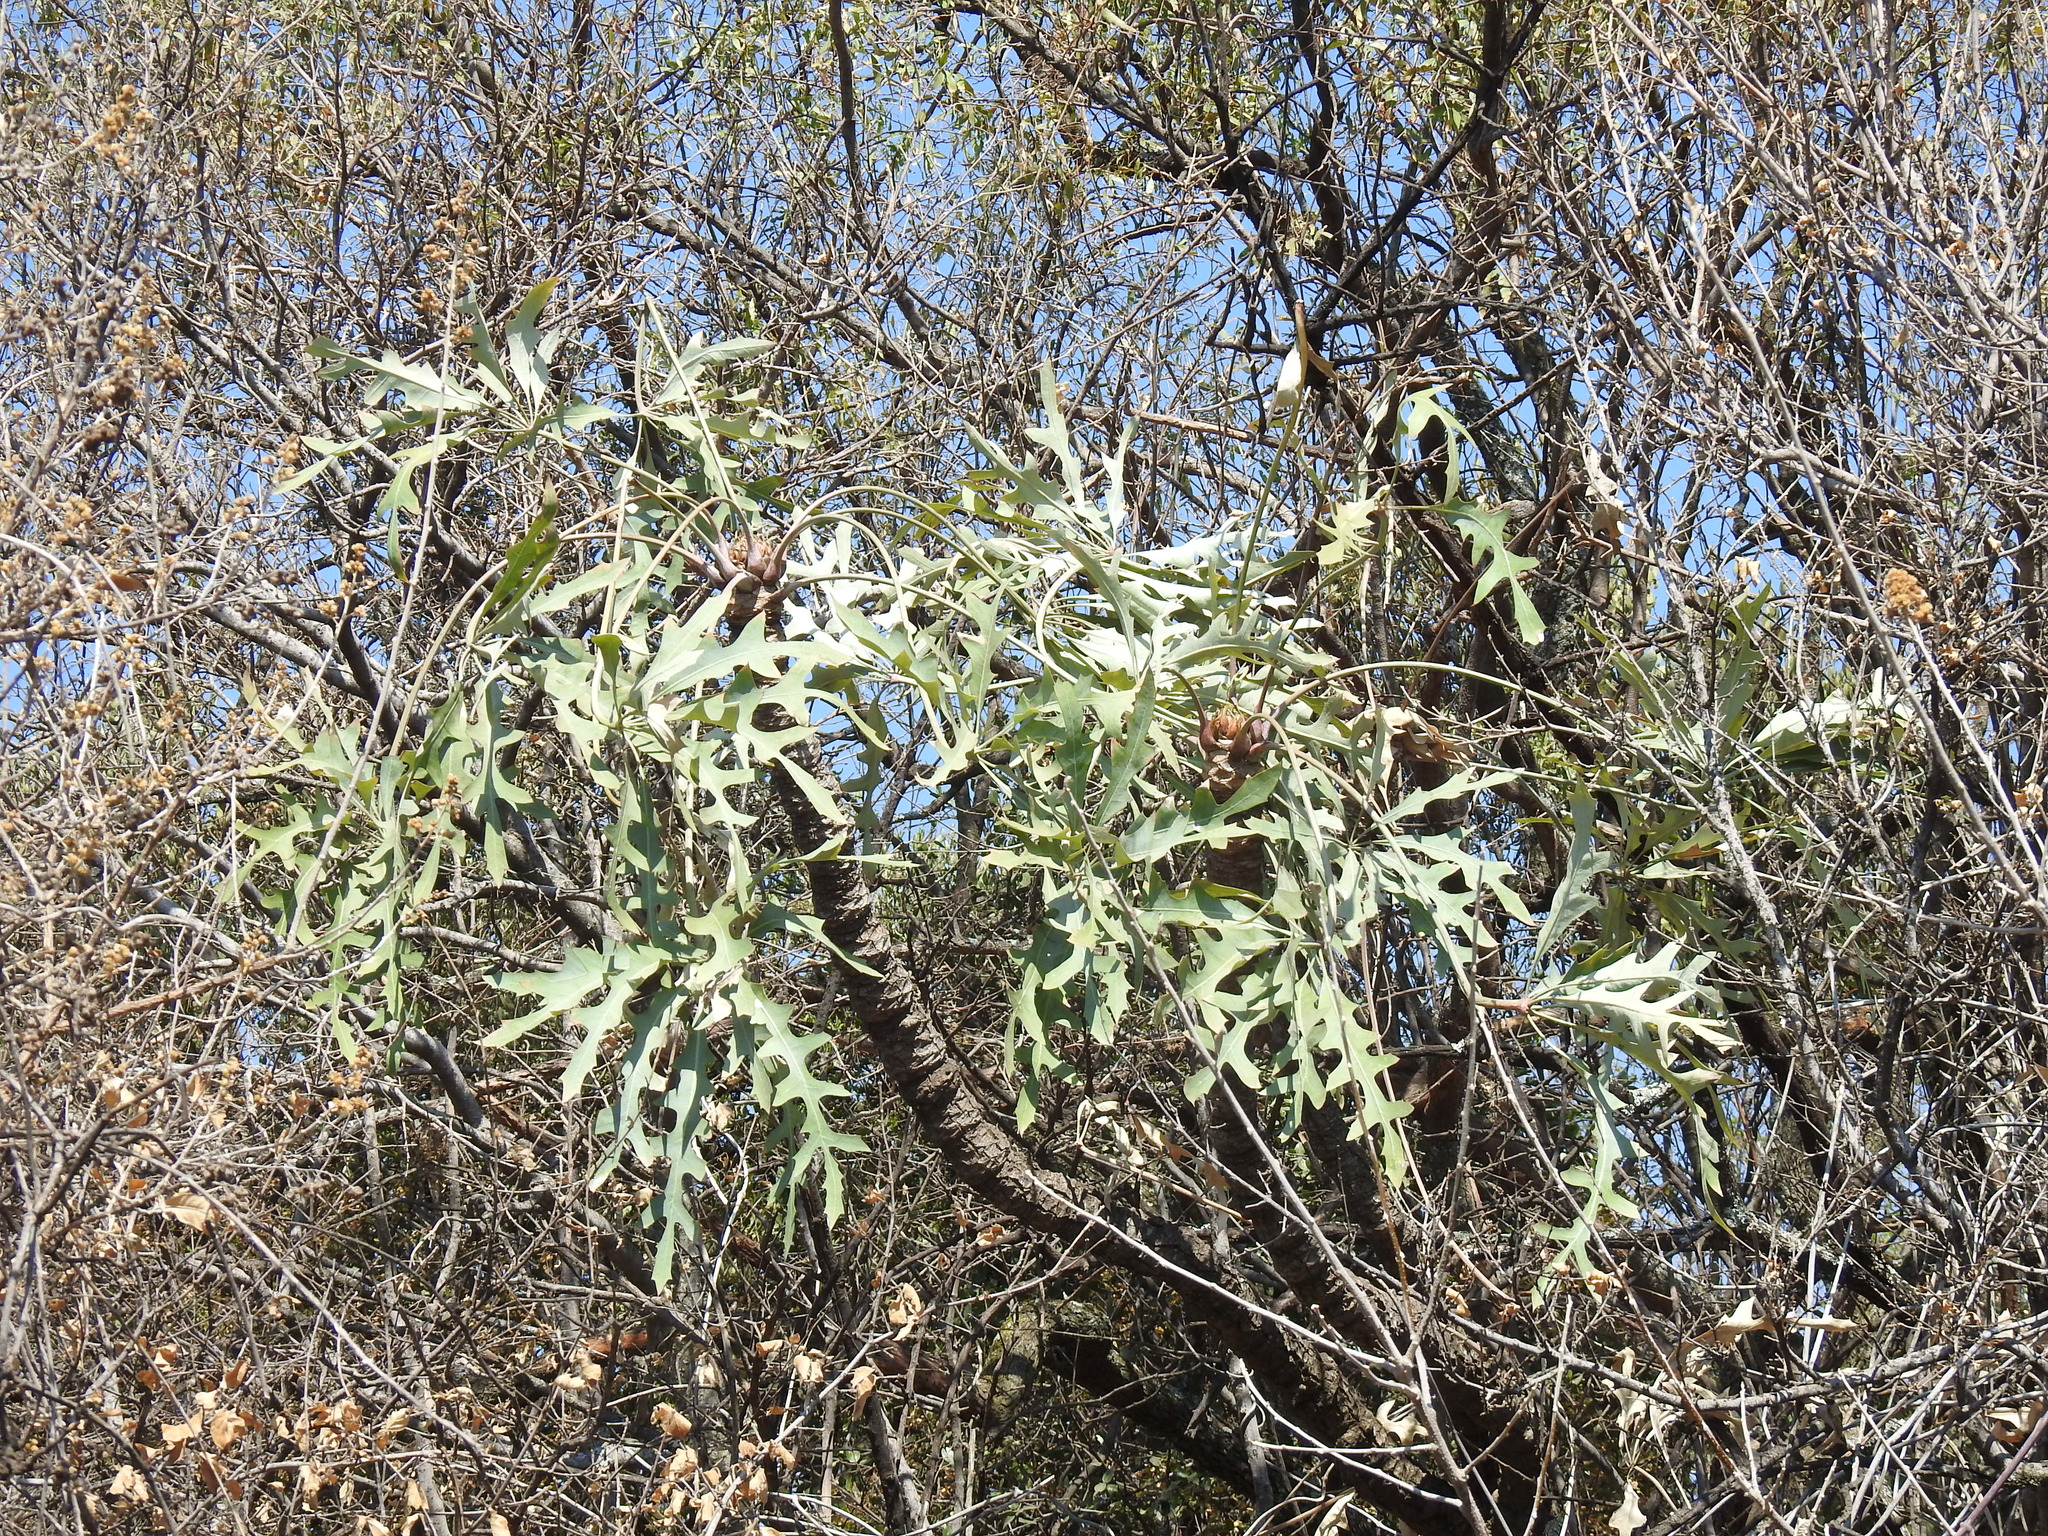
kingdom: Plantae
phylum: Tracheophyta
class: Magnoliopsida
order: Apiales
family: Araliaceae
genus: Cussonia
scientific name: Cussonia paniculata
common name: Cabbagetree
